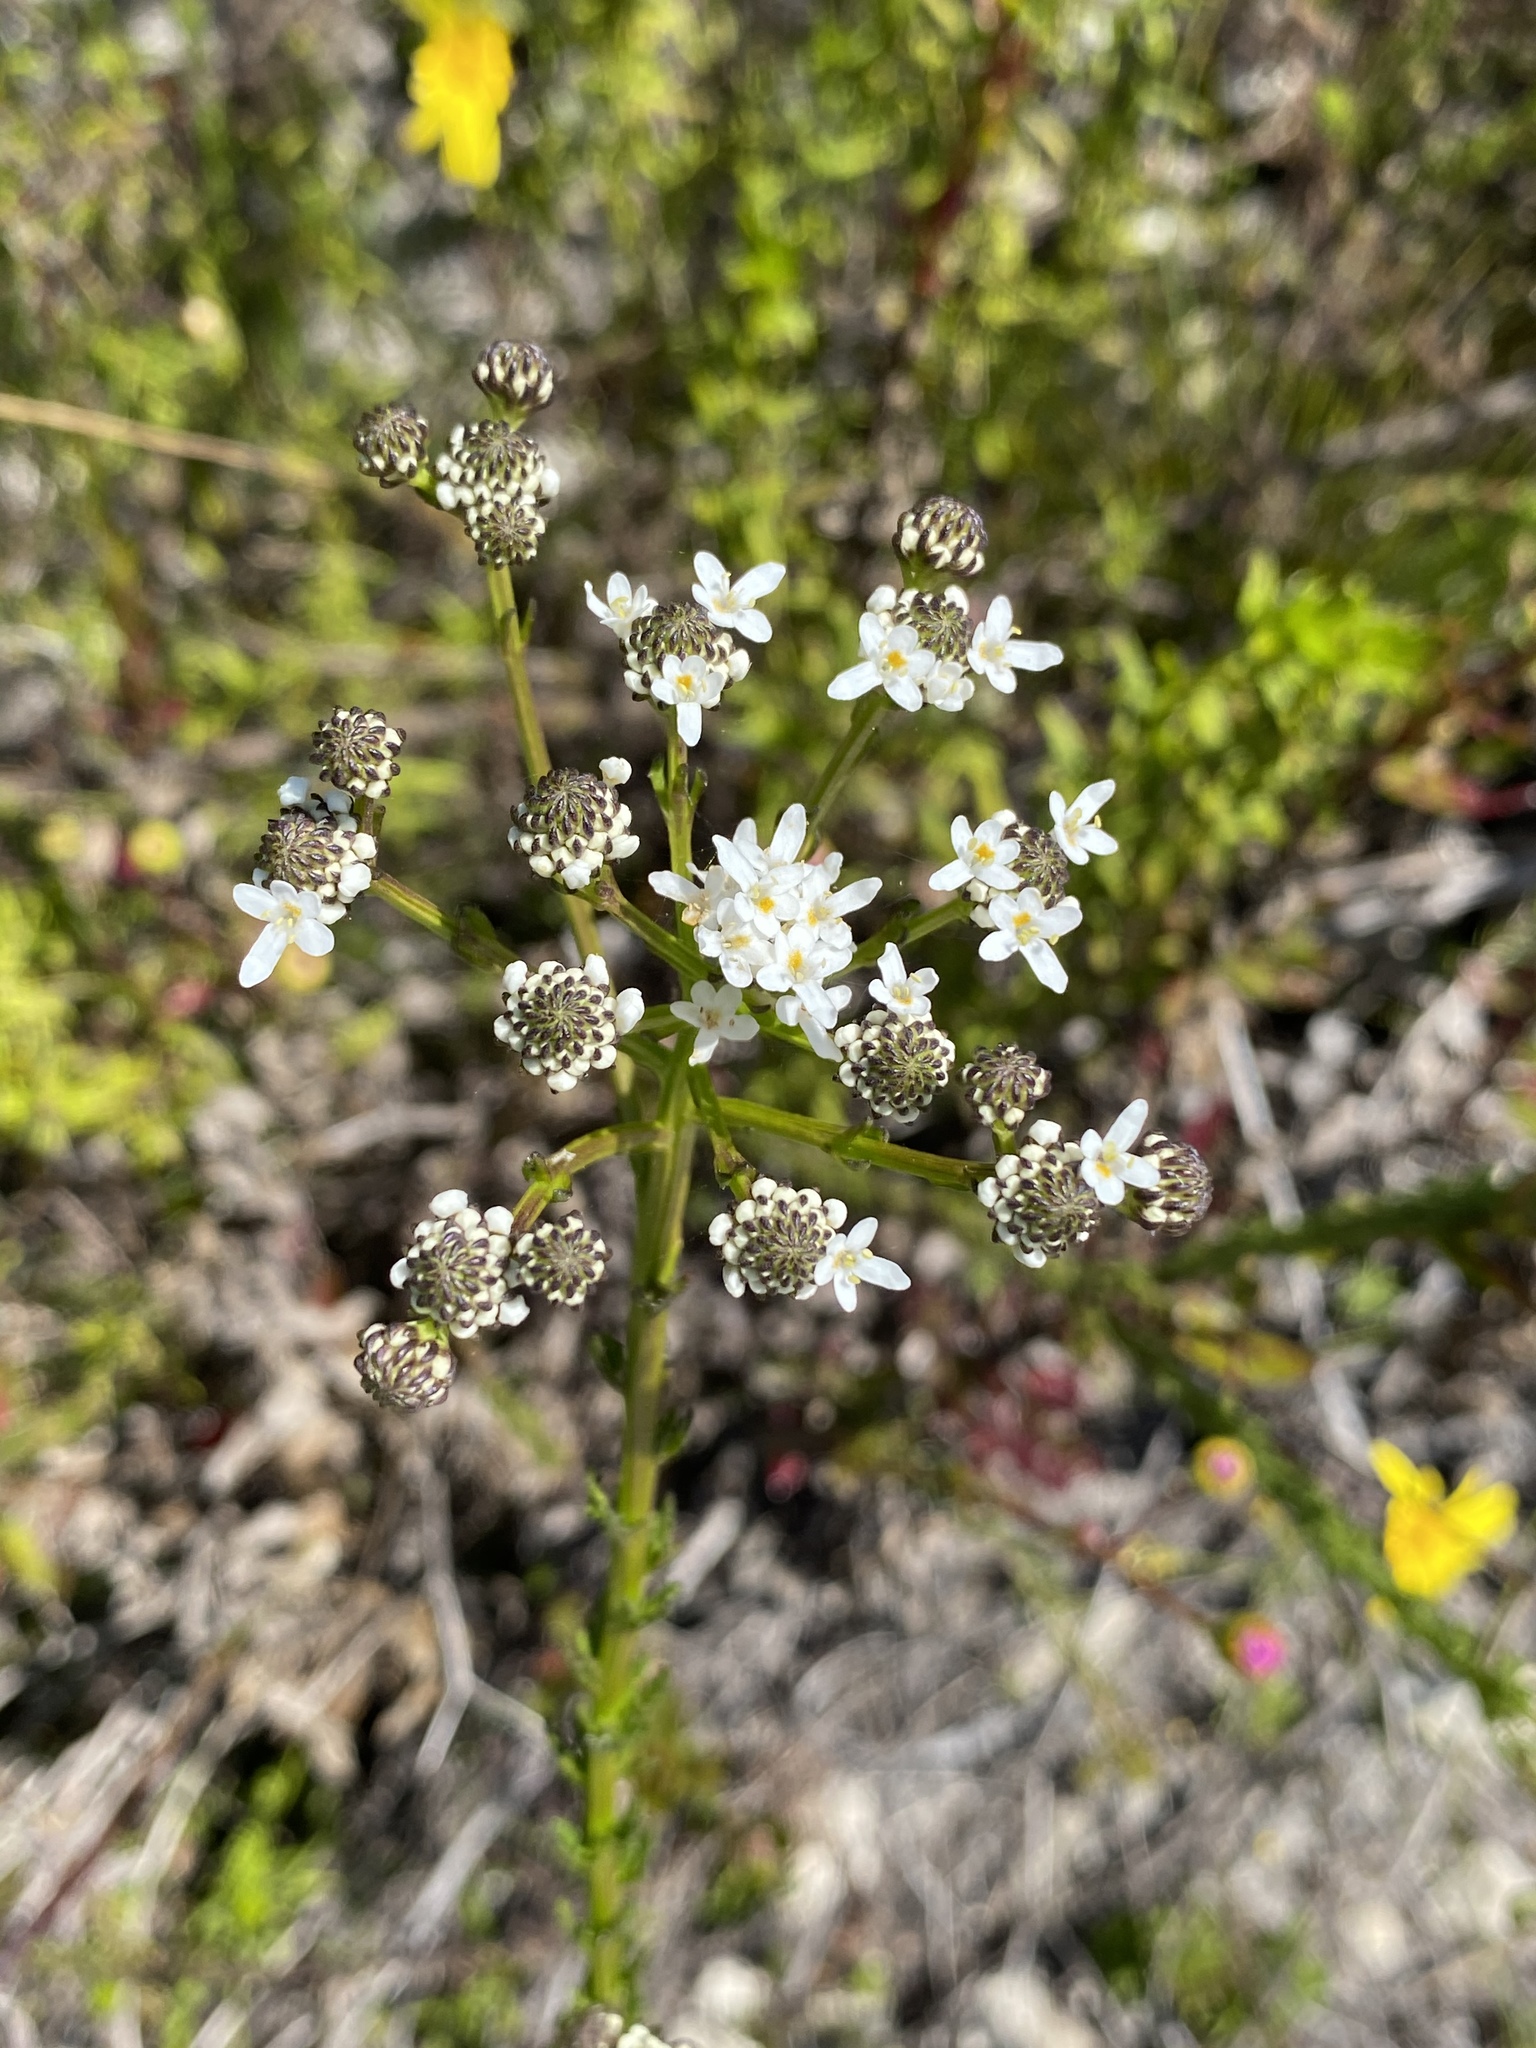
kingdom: Plantae
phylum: Tracheophyta
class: Magnoliopsida
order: Lamiales
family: Scrophulariaceae
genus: Pseudoselago
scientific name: Pseudoselago outeniquensis
